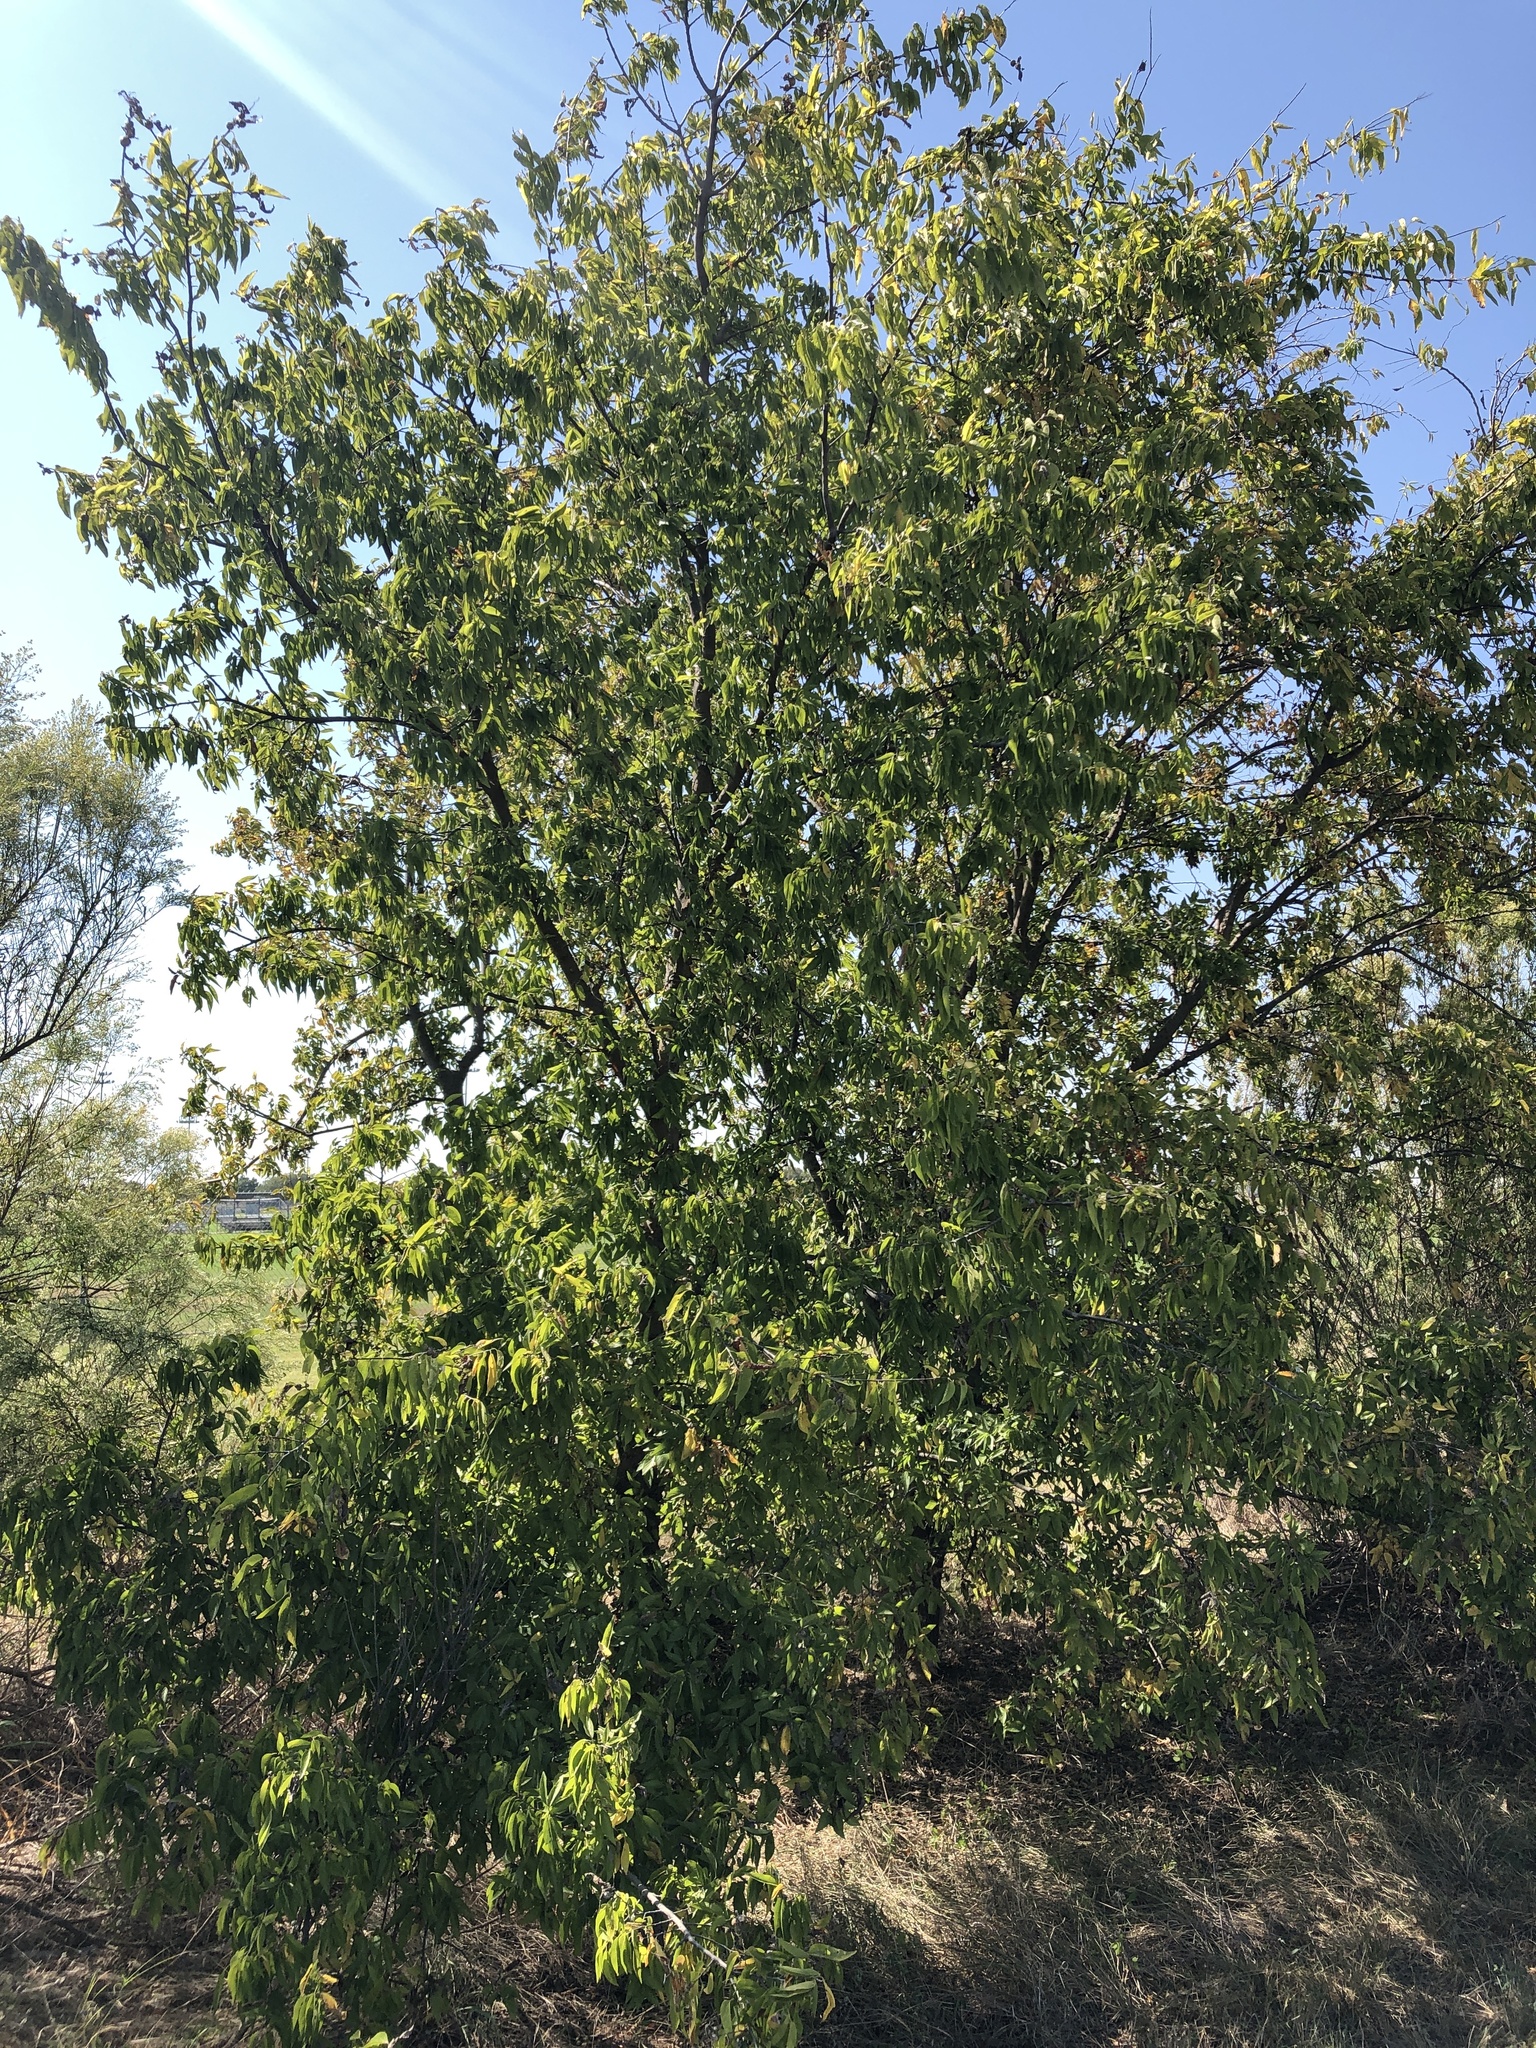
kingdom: Plantae
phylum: Tracheophyta
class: Magnoliopsida
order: Rosales
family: Cannabaceae
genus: Celtis
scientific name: Celtis laevigata
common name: Sugarberry
